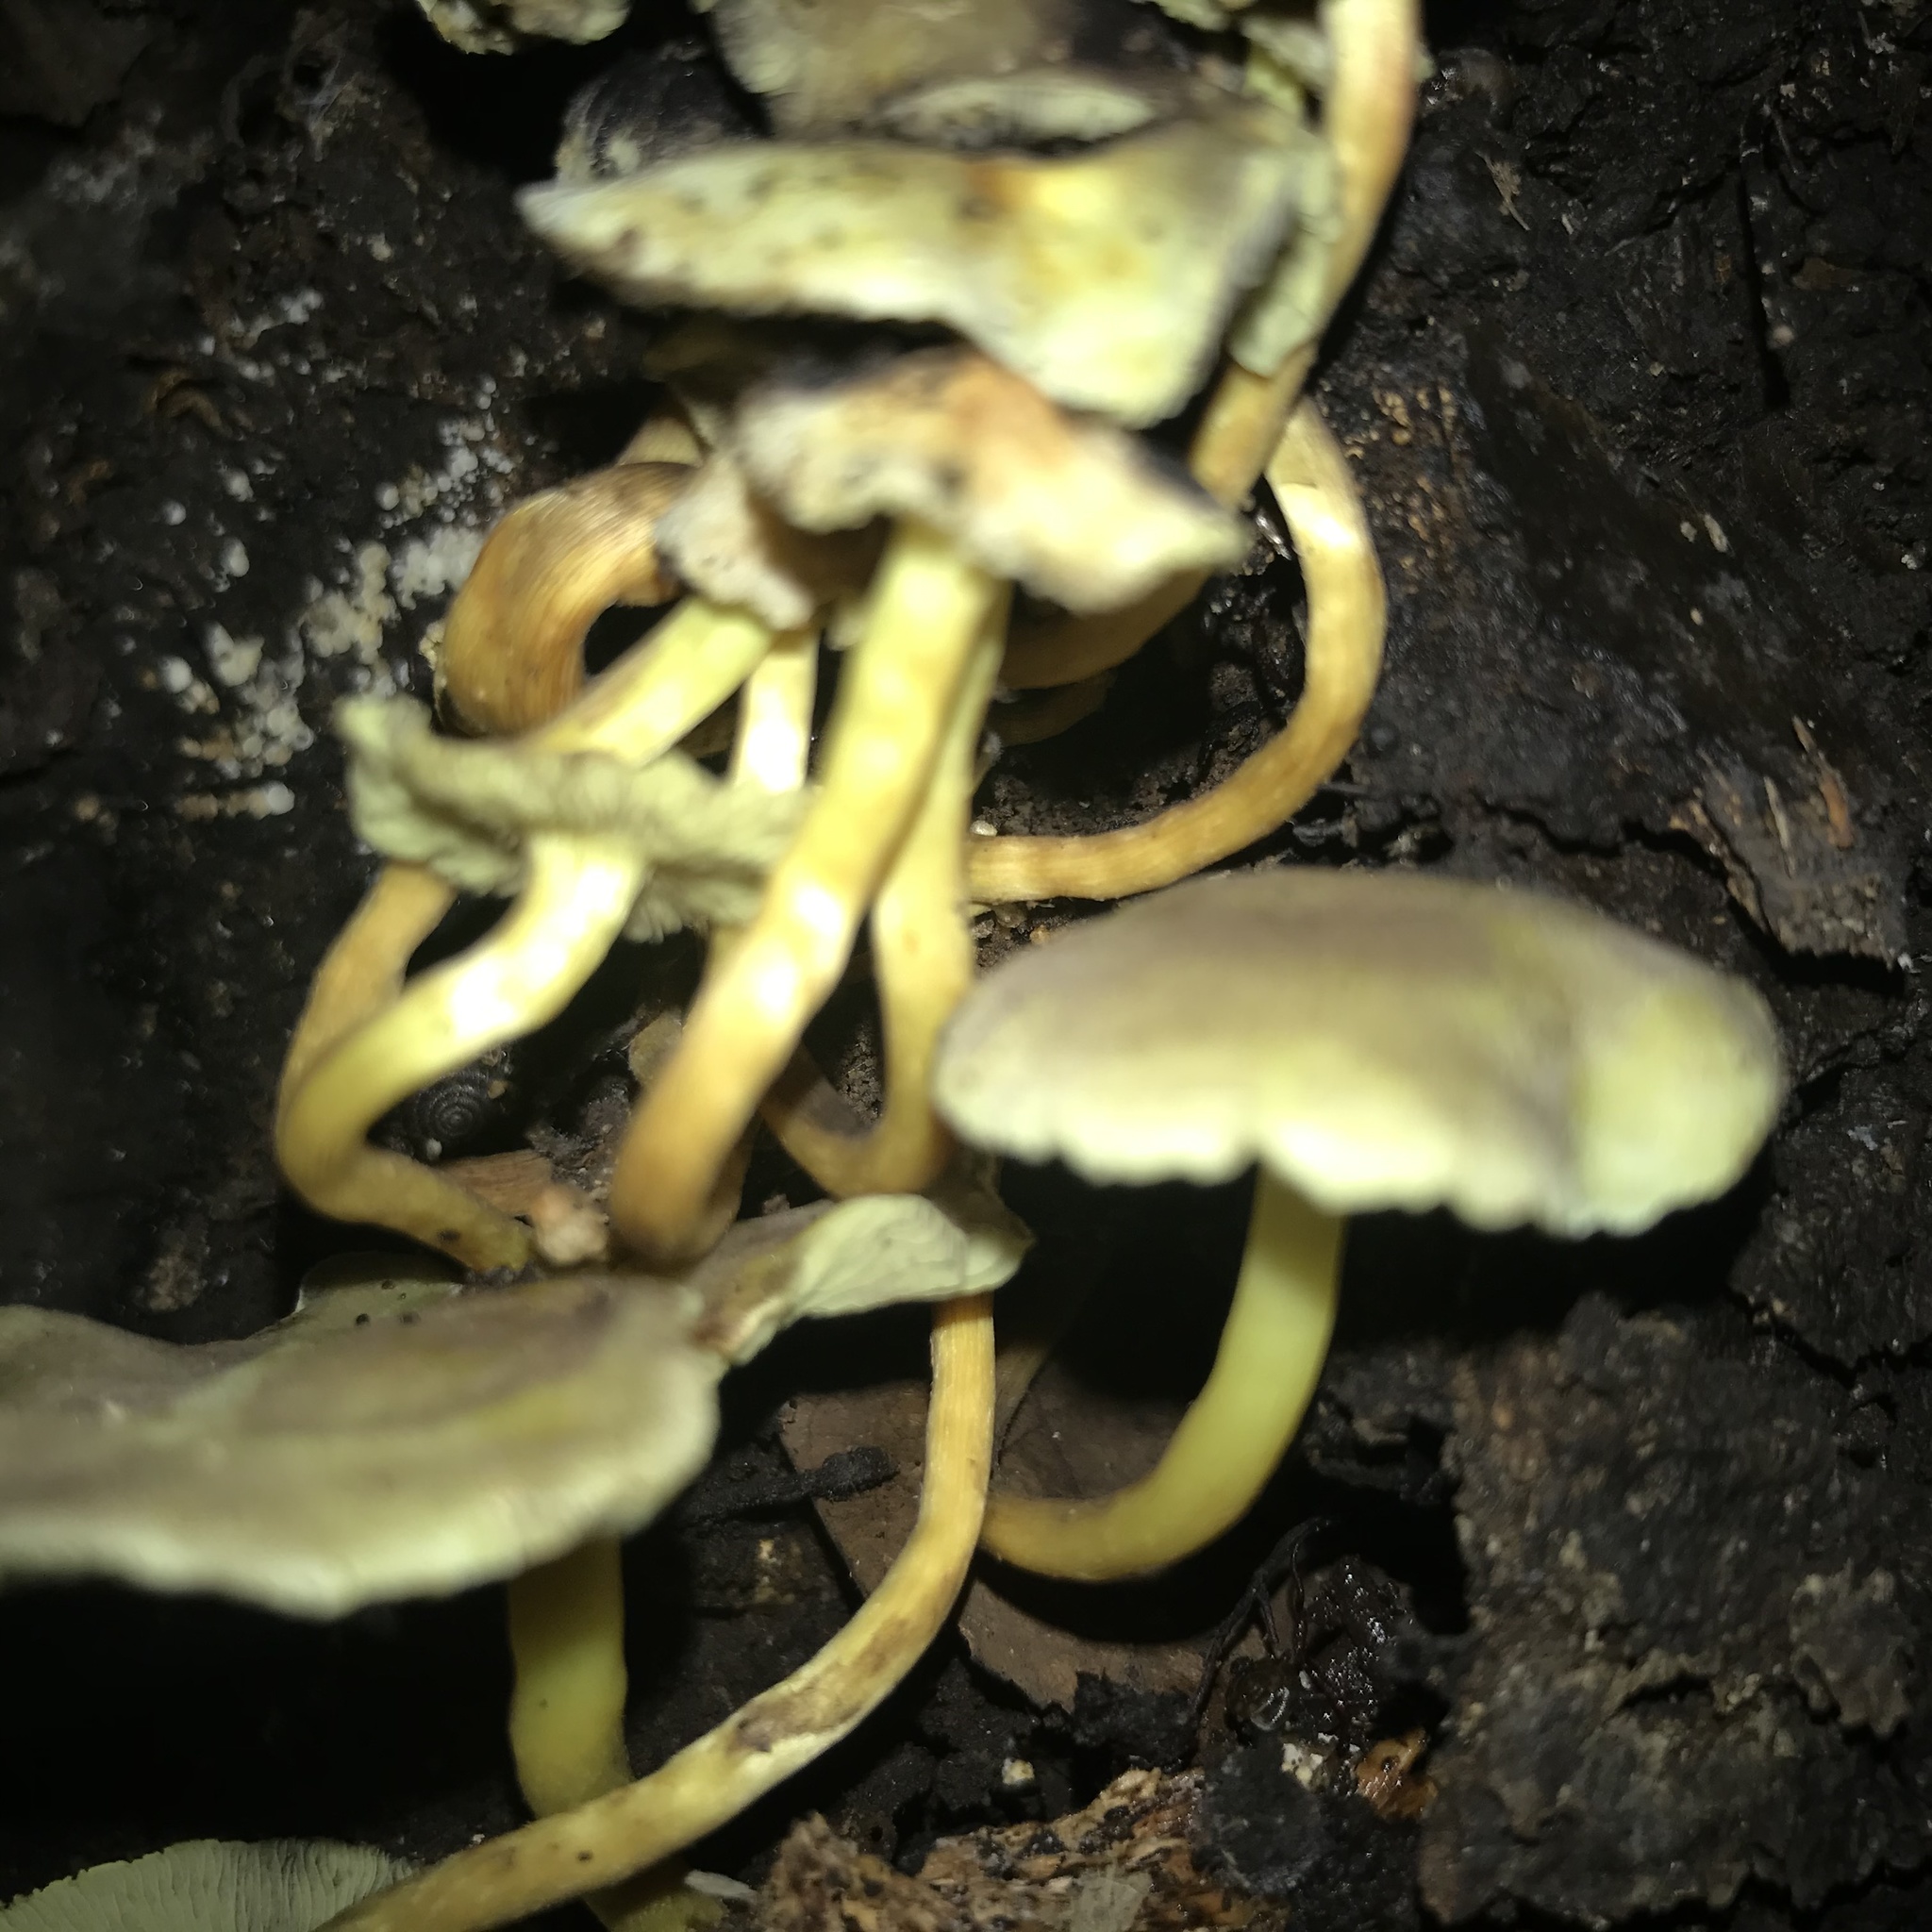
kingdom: Fungi
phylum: Basidiomycota
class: Agaricomycetes
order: Agaricales
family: Strophariaceae
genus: Hypholoma
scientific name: Hypholoma fasciculare
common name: Sulphur tuft
